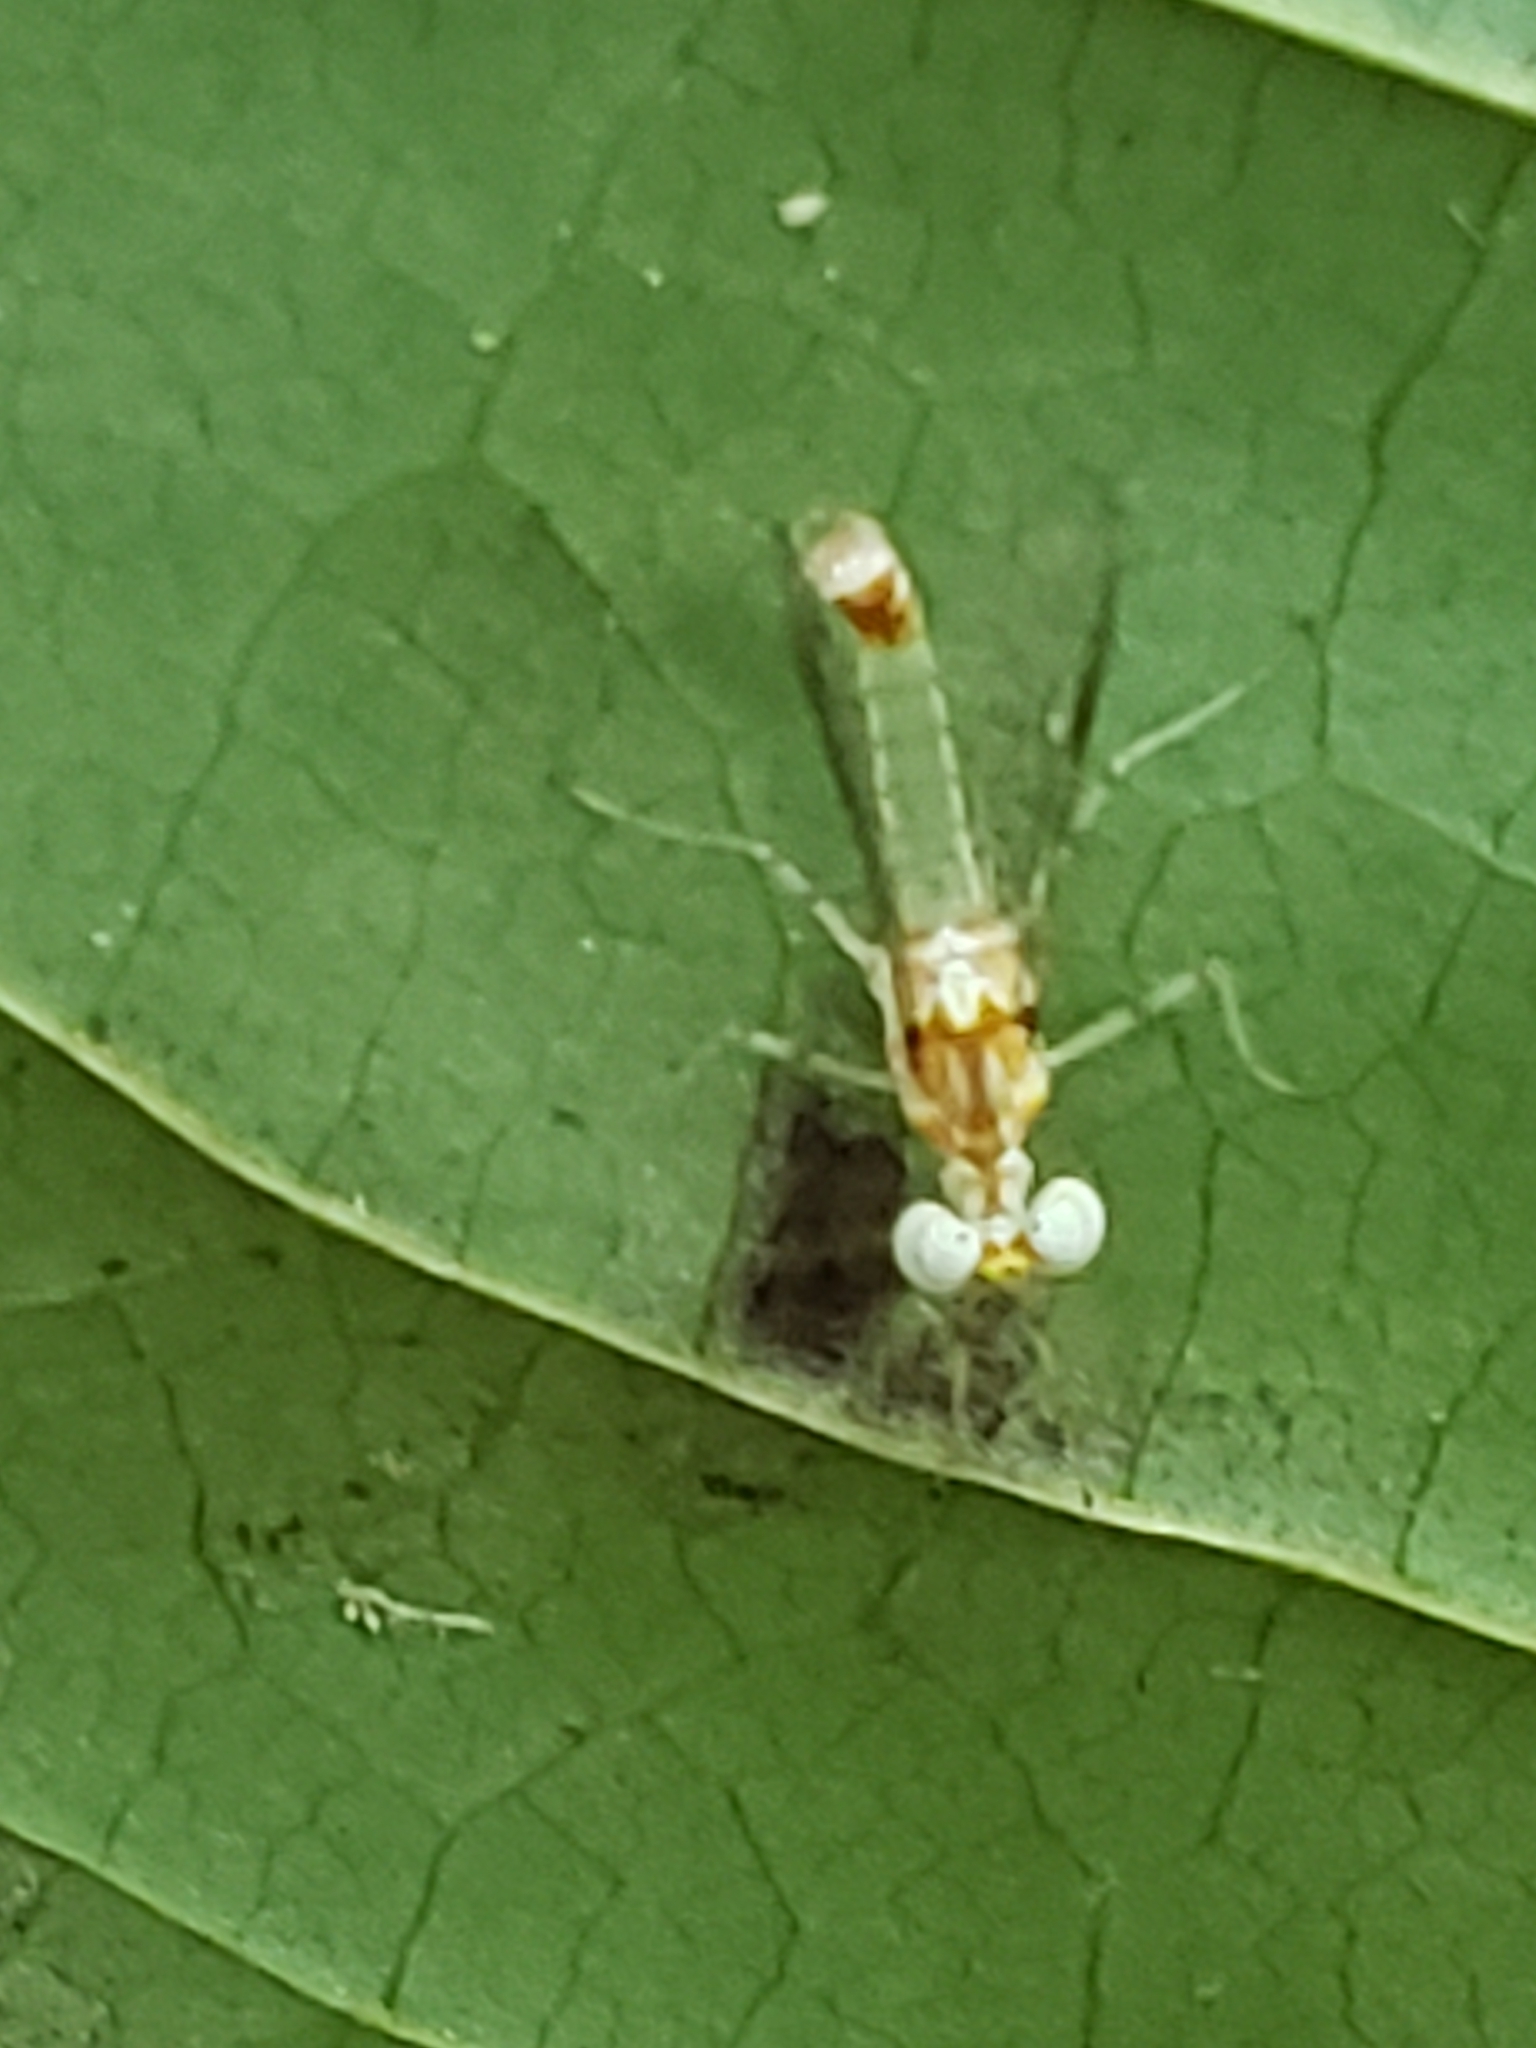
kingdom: Animalia
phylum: Arthropoda
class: Insecta
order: Ephemeroptera
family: Heptageniidae
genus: Maccaffertium
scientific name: Maccaffertium modestum
